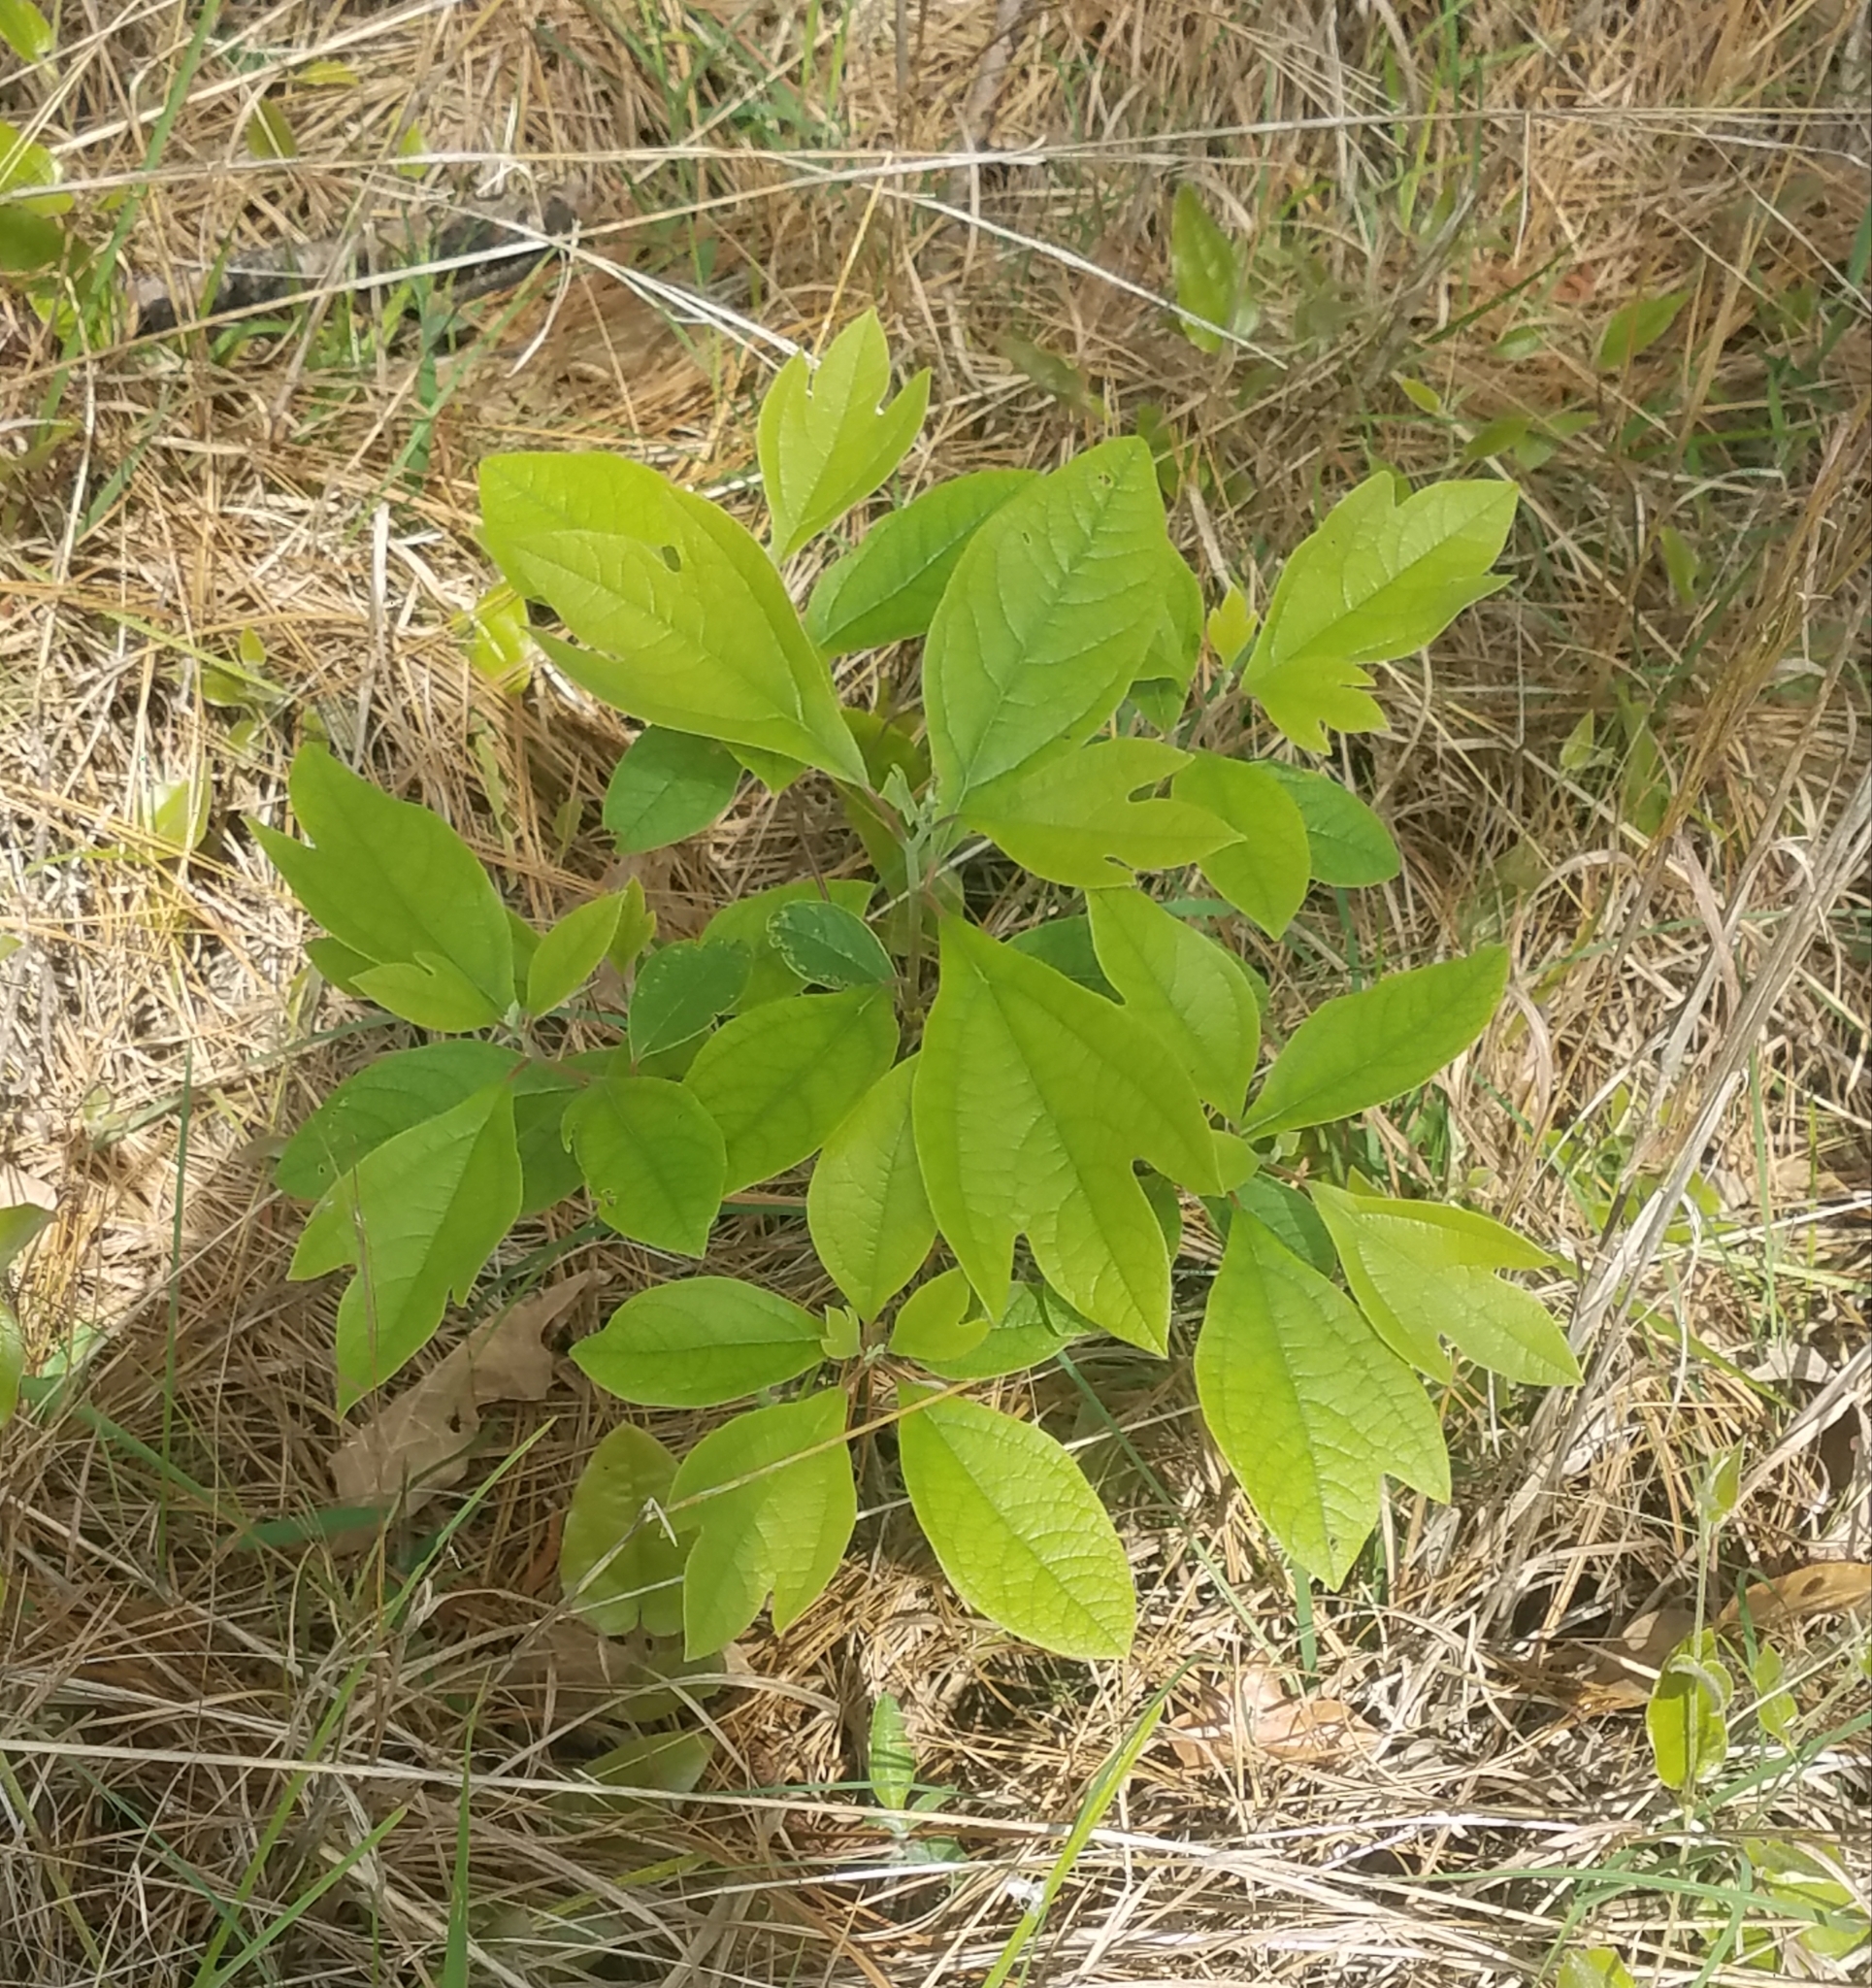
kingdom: Plantae
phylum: Tracheophyta
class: Magnoliopsida
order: Laurales
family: Lauraceae
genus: Sassafras
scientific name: Sassafras albidum
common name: Sassafras
